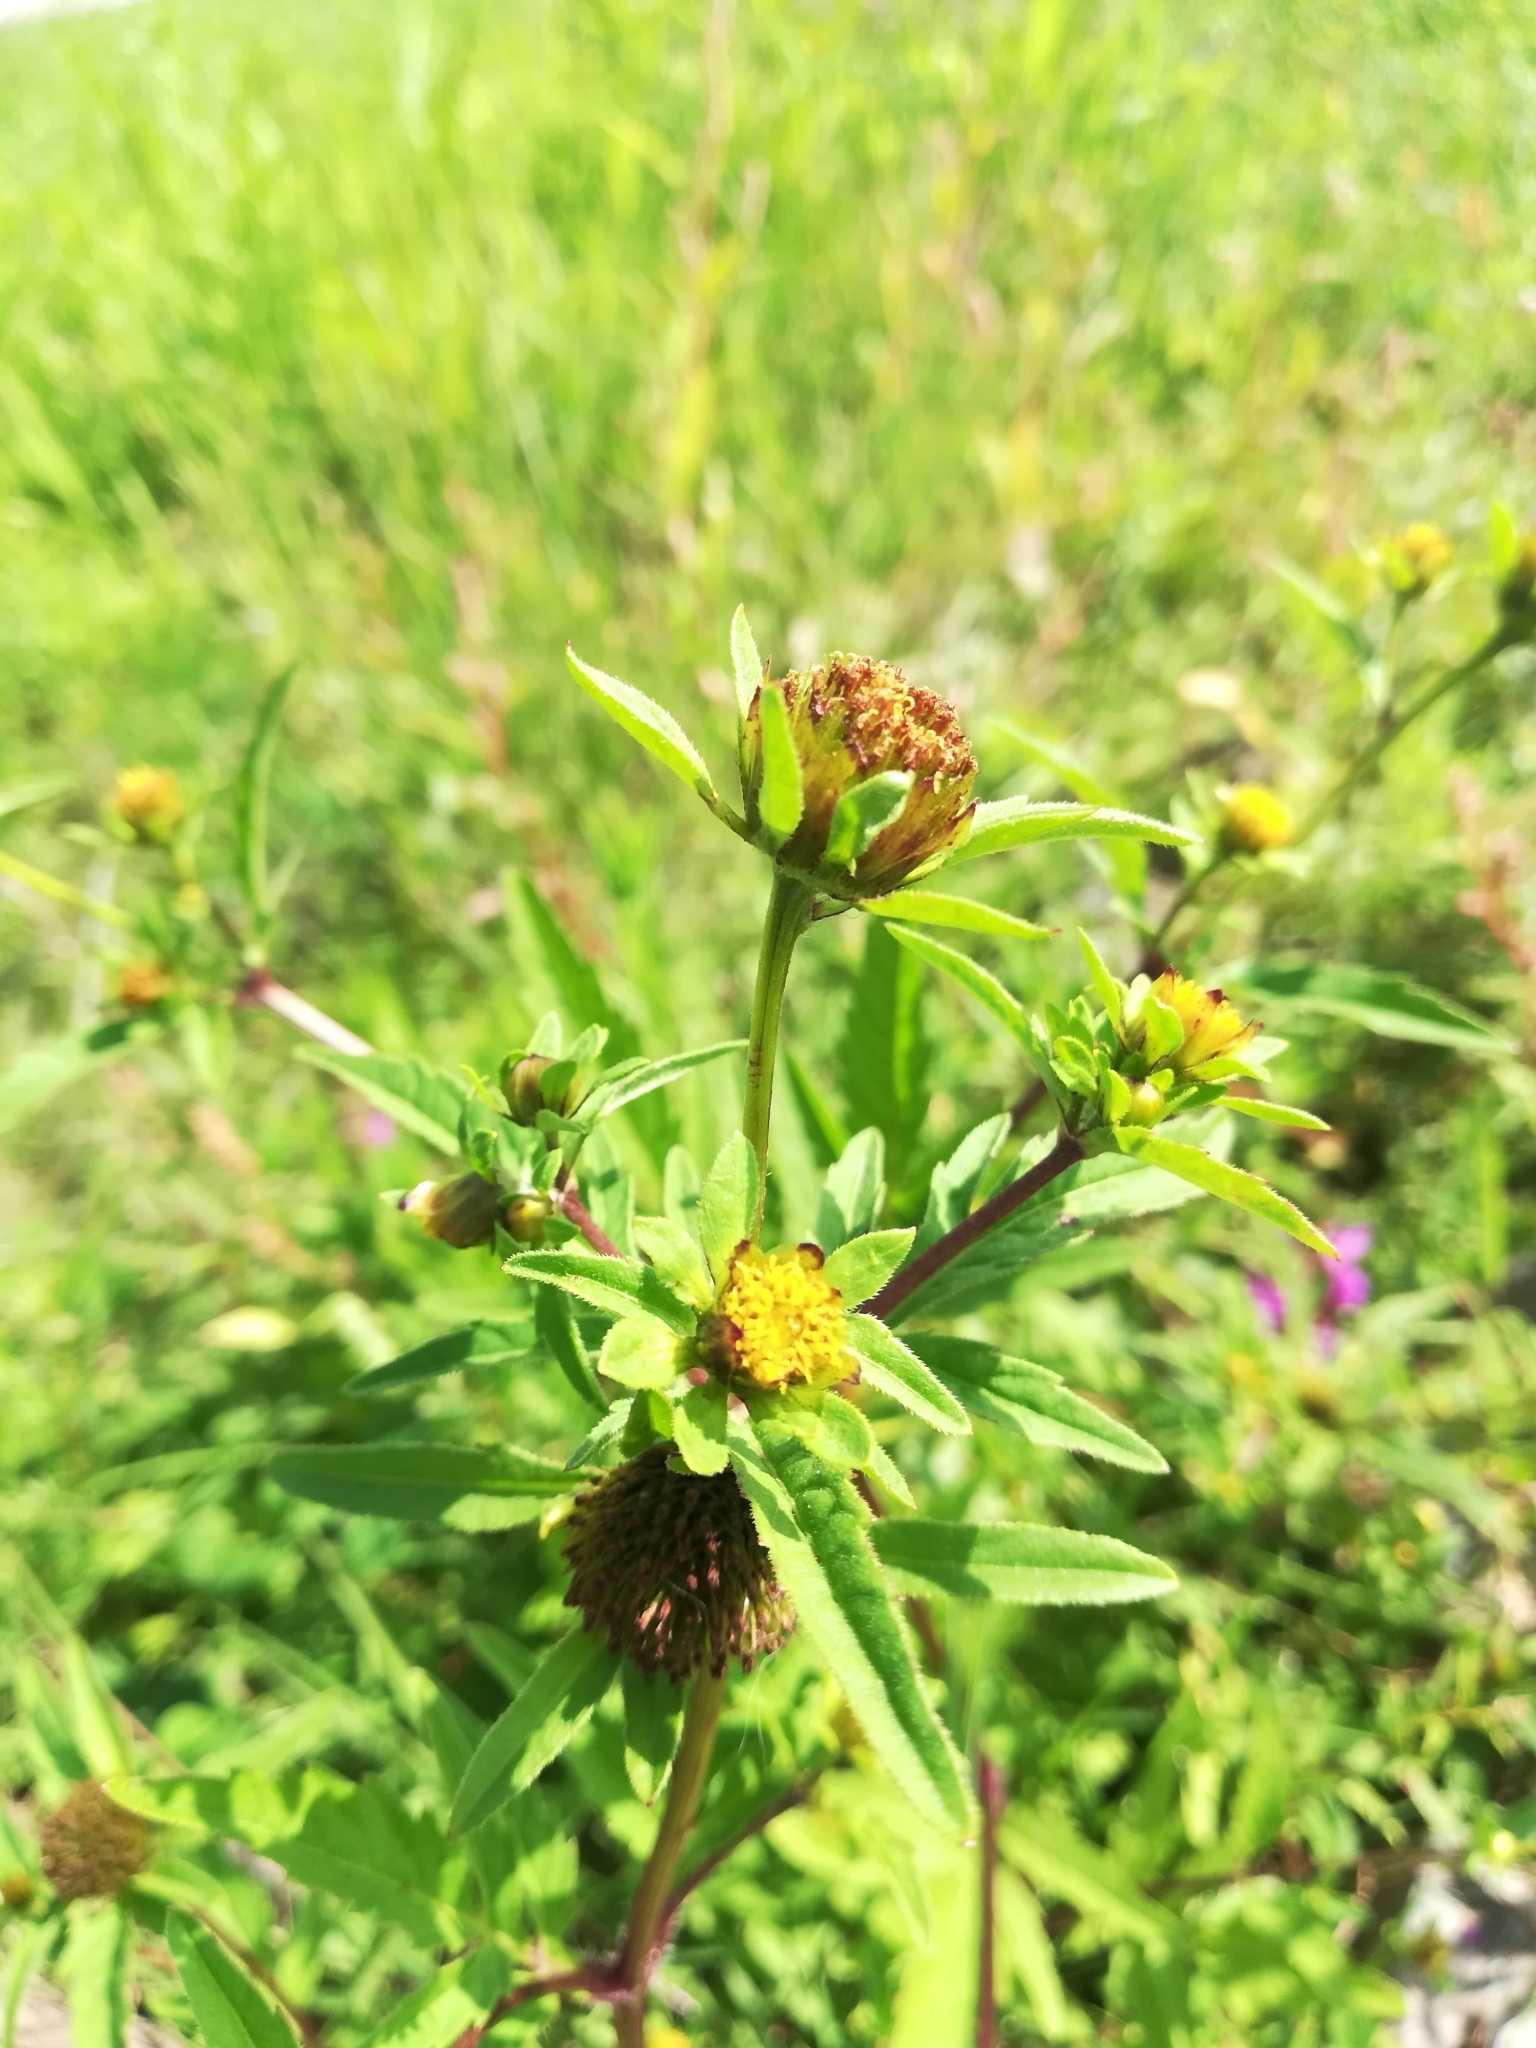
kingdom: Plantae
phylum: Tracheophyta
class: Magnoliopsida
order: Asterales
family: Asteraceae
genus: Bidens
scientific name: Bidens tripartita
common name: Trifid bur-marigold
